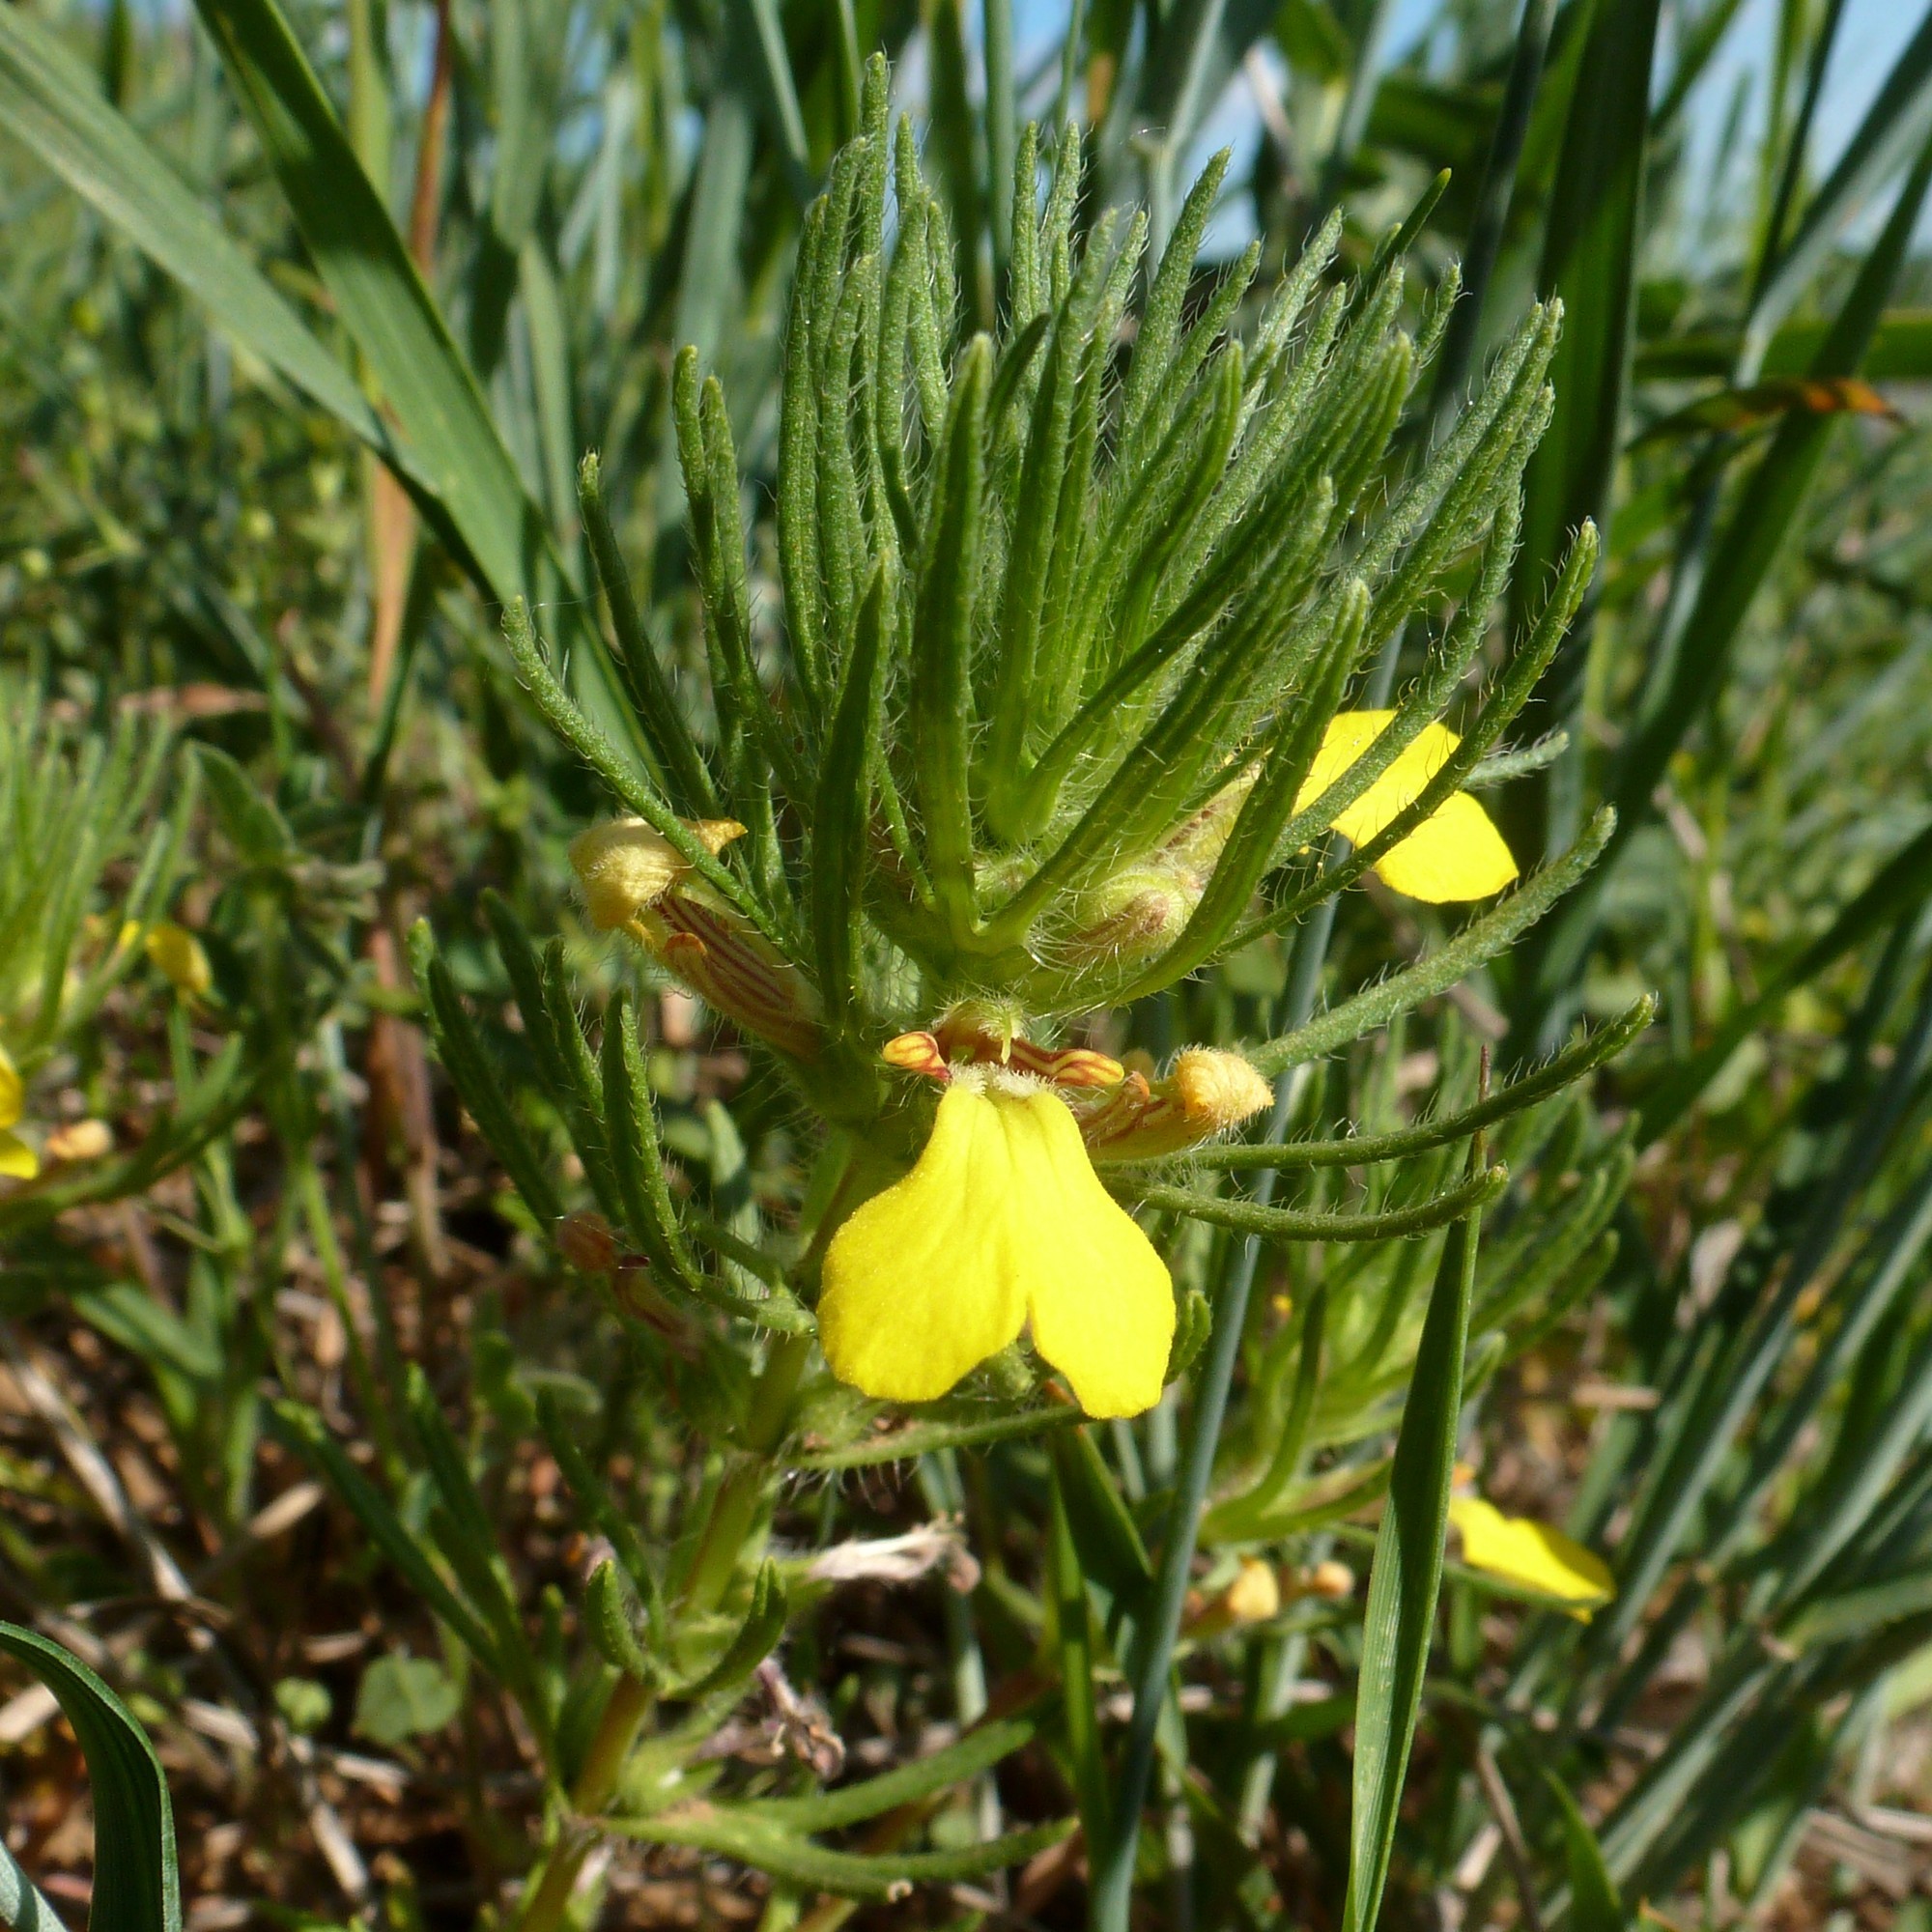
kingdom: Plantae
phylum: Tracheophyta
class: Magnoliopsida
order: Lamiales
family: Lamiaceae
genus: Ajuga
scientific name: Ajuga chamaepitys
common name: Ground-pine
